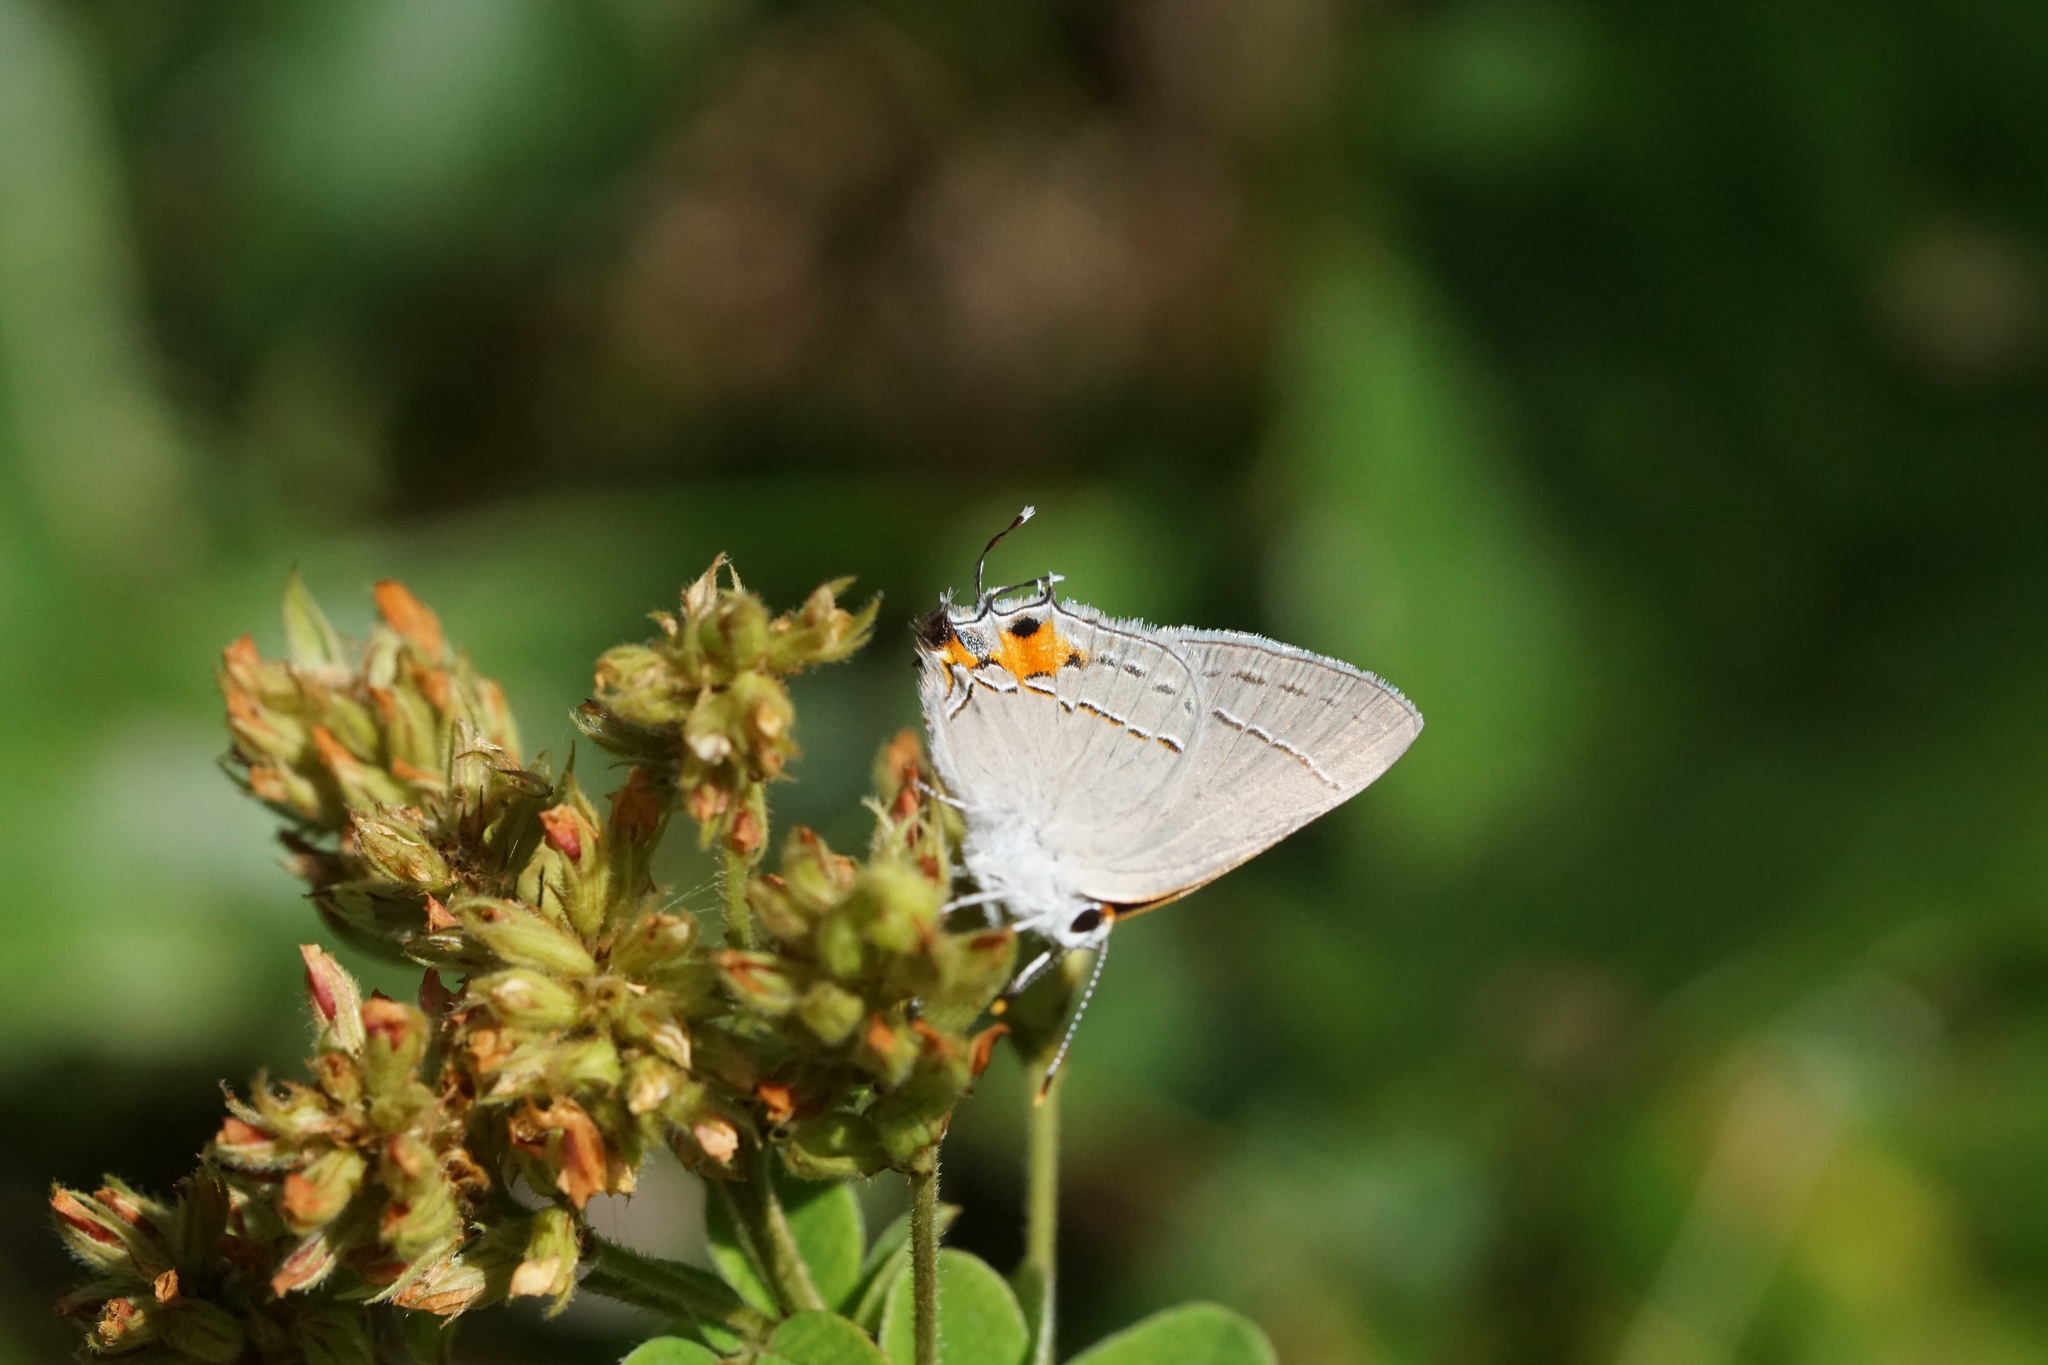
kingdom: Animalia
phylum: Arthropoda
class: Insecta
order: Lepidoptera
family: Lycaenidae
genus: Strymon
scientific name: Strymon melinus
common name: Gray hairstreak
